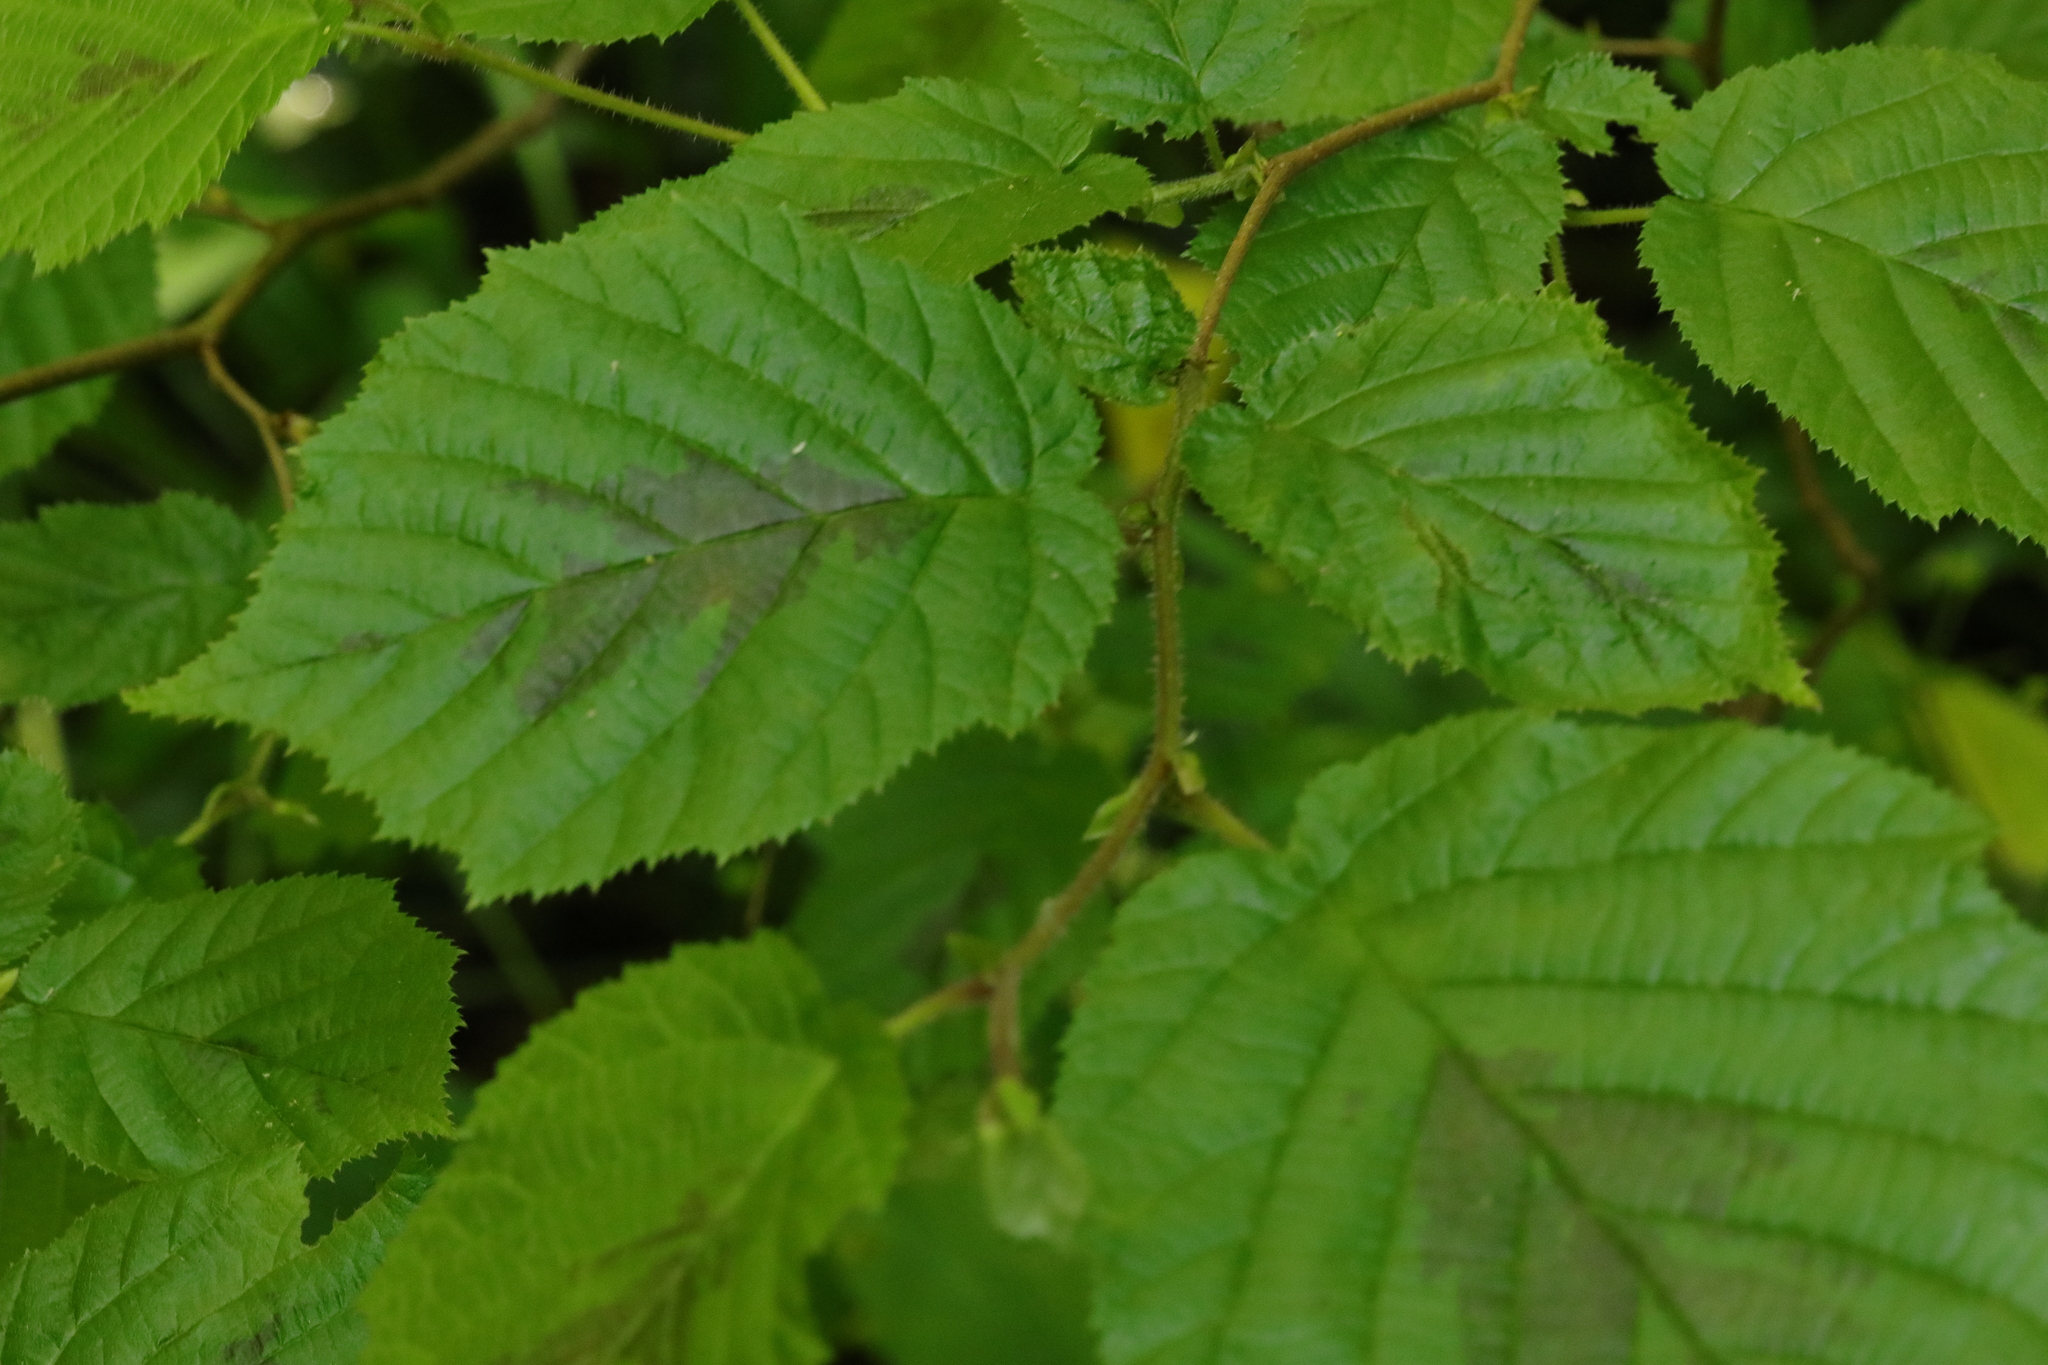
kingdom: Plantae
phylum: Tracheophyta
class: Magnoliopsida
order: Fagales
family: Betulaceae
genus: Corylus
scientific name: Corylus avellana
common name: European hazel
